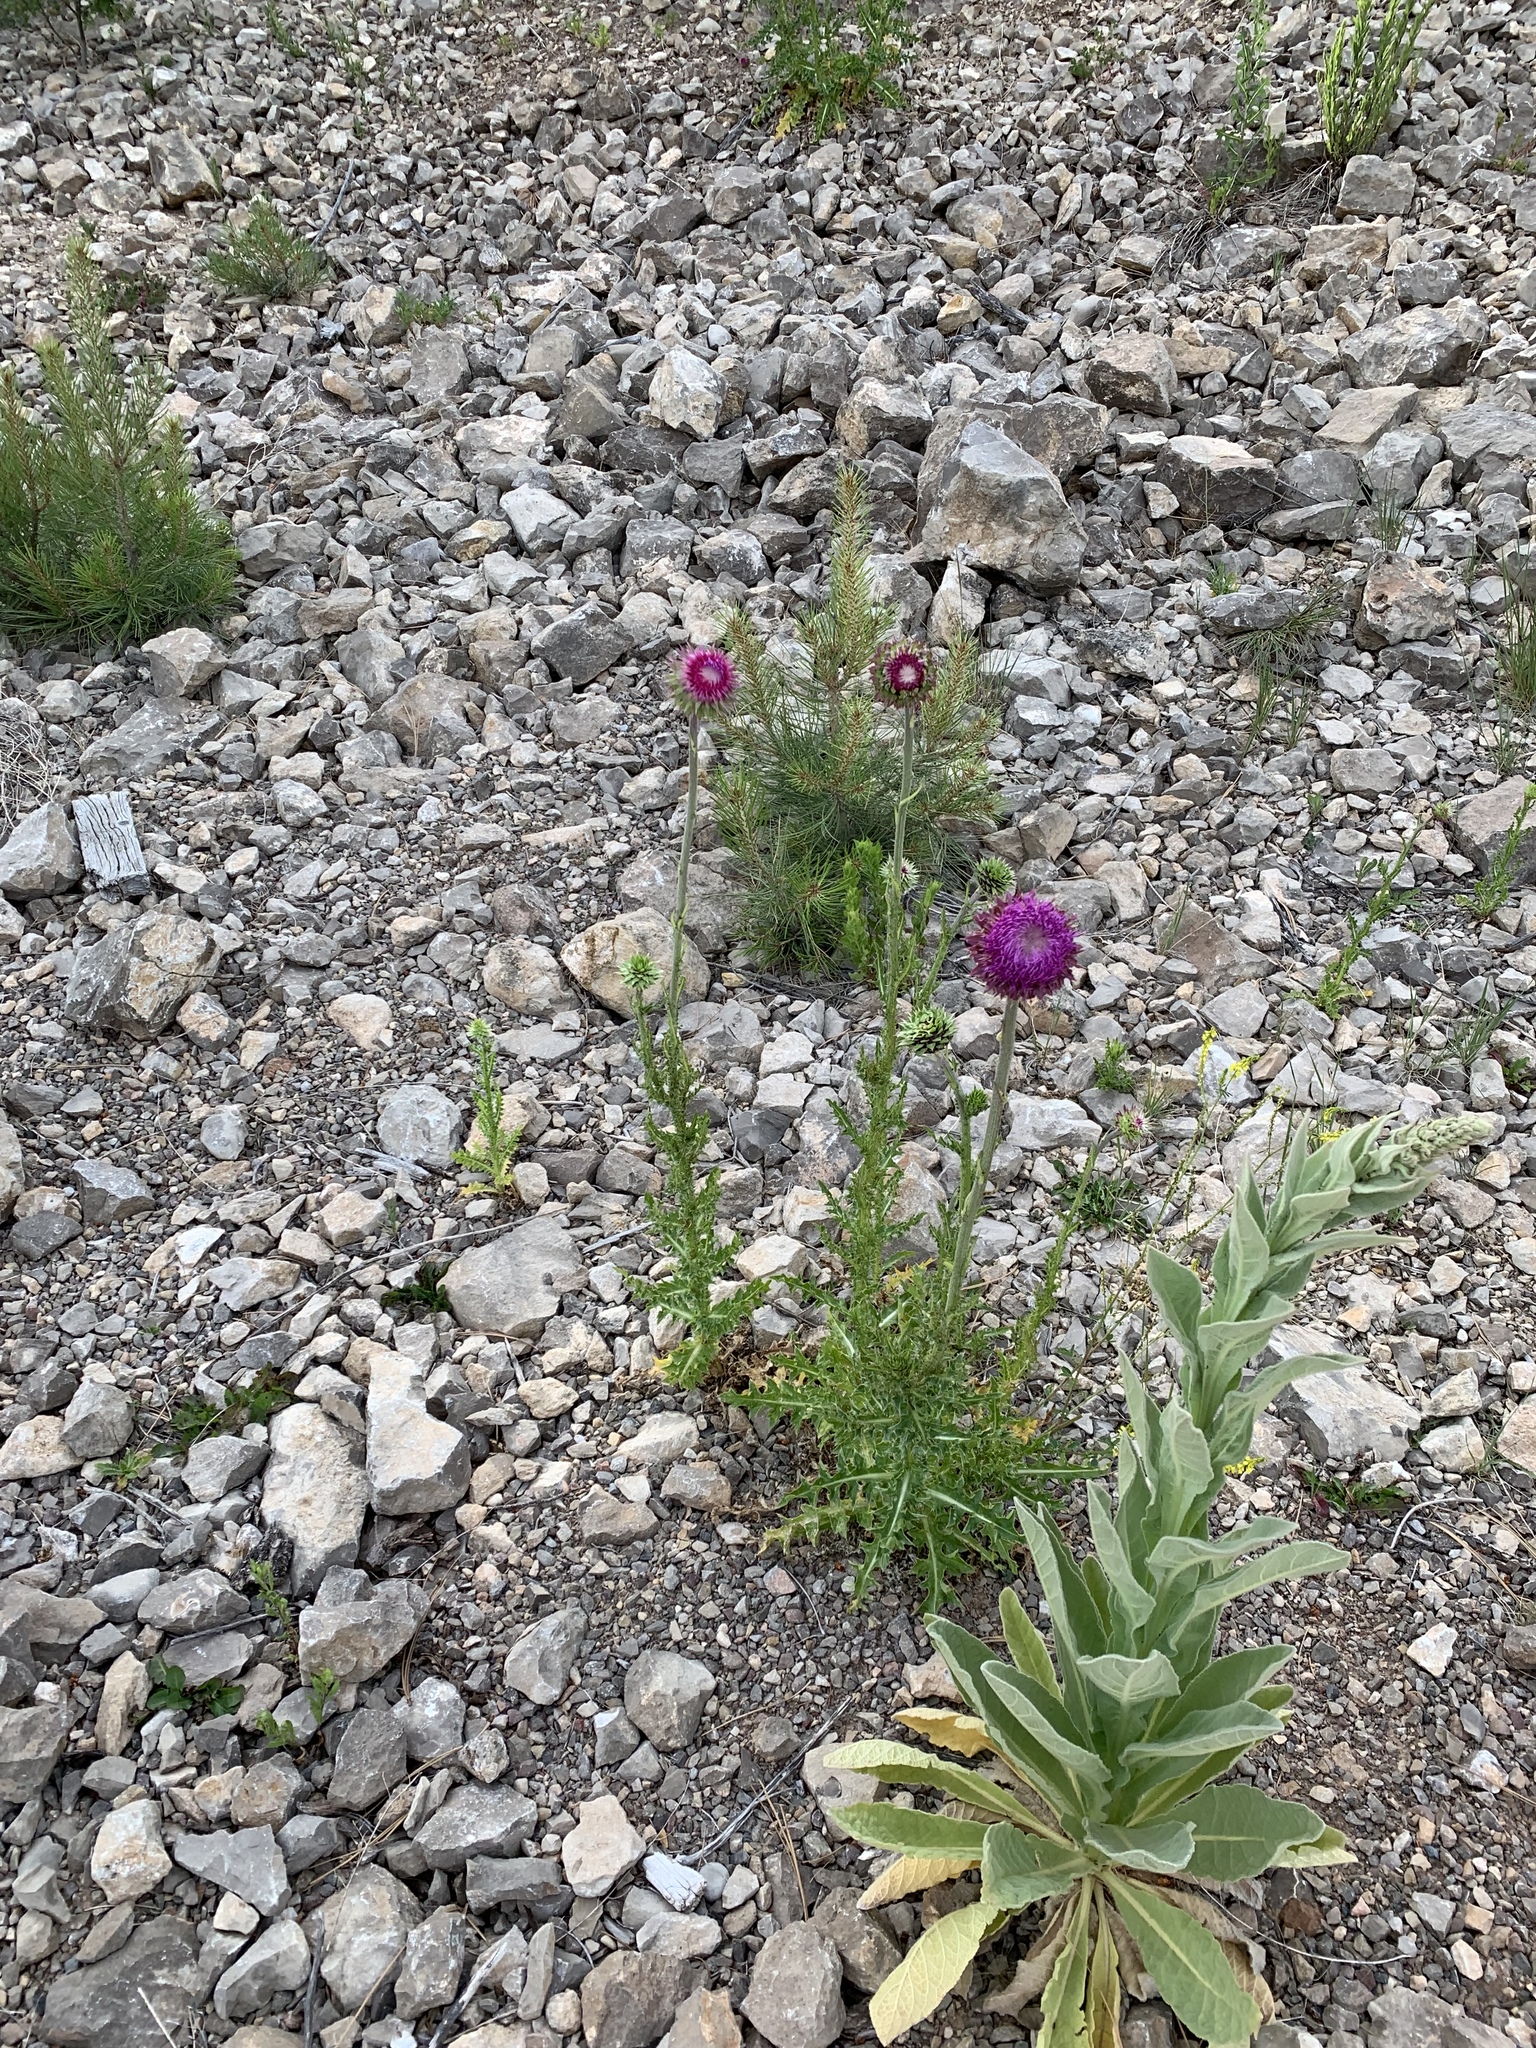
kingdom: Plantae
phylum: Tracheophyta
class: Magnoliopsida
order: Asterales
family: Asteraceae
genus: Carduus
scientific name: Carduus nutans
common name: Musk thistle
